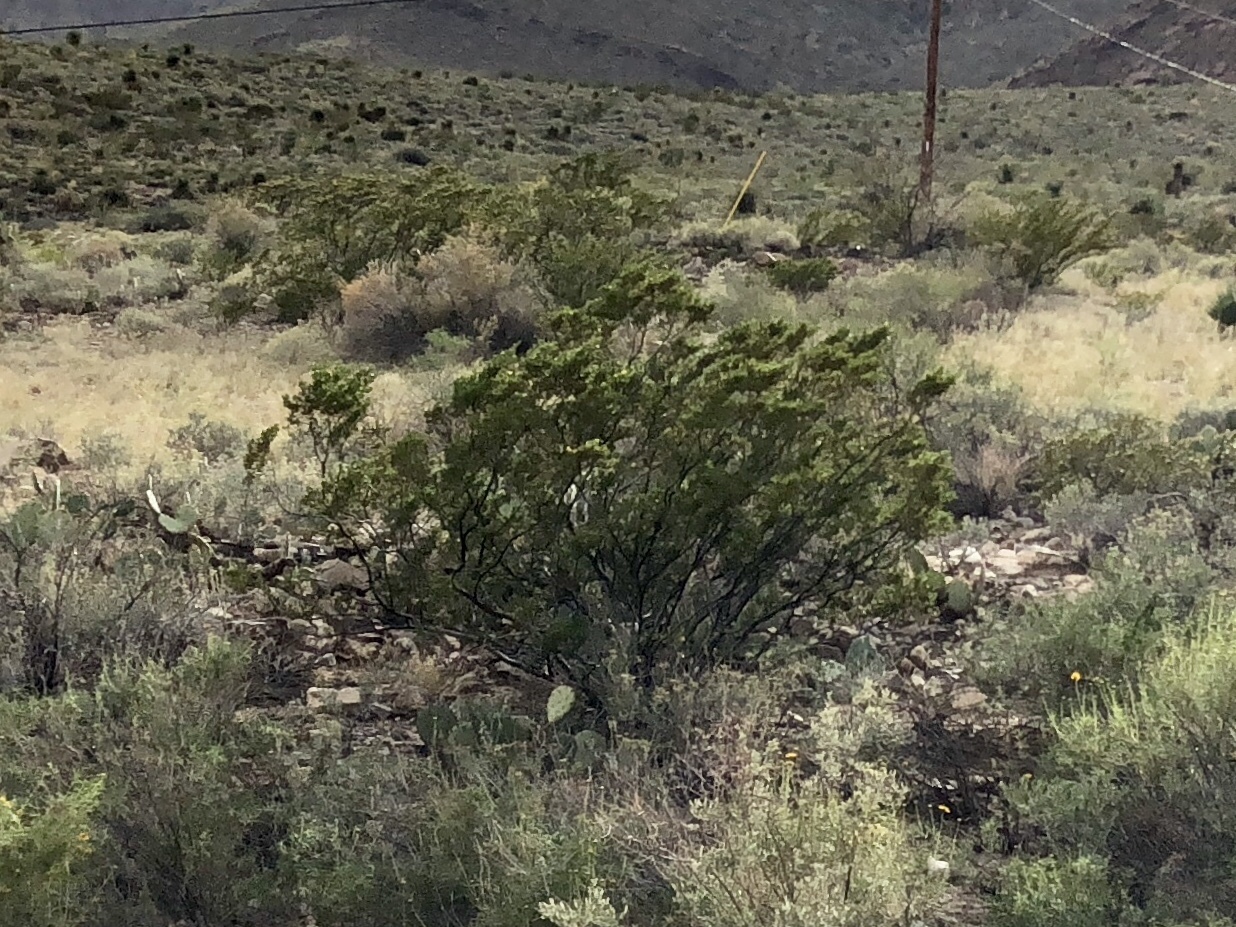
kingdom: Plantae
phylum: Tracheophyta
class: Magnoliopsida
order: Zygophyllales
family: Zygophyllaceae
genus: Larrea
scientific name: Larrea tridentata
